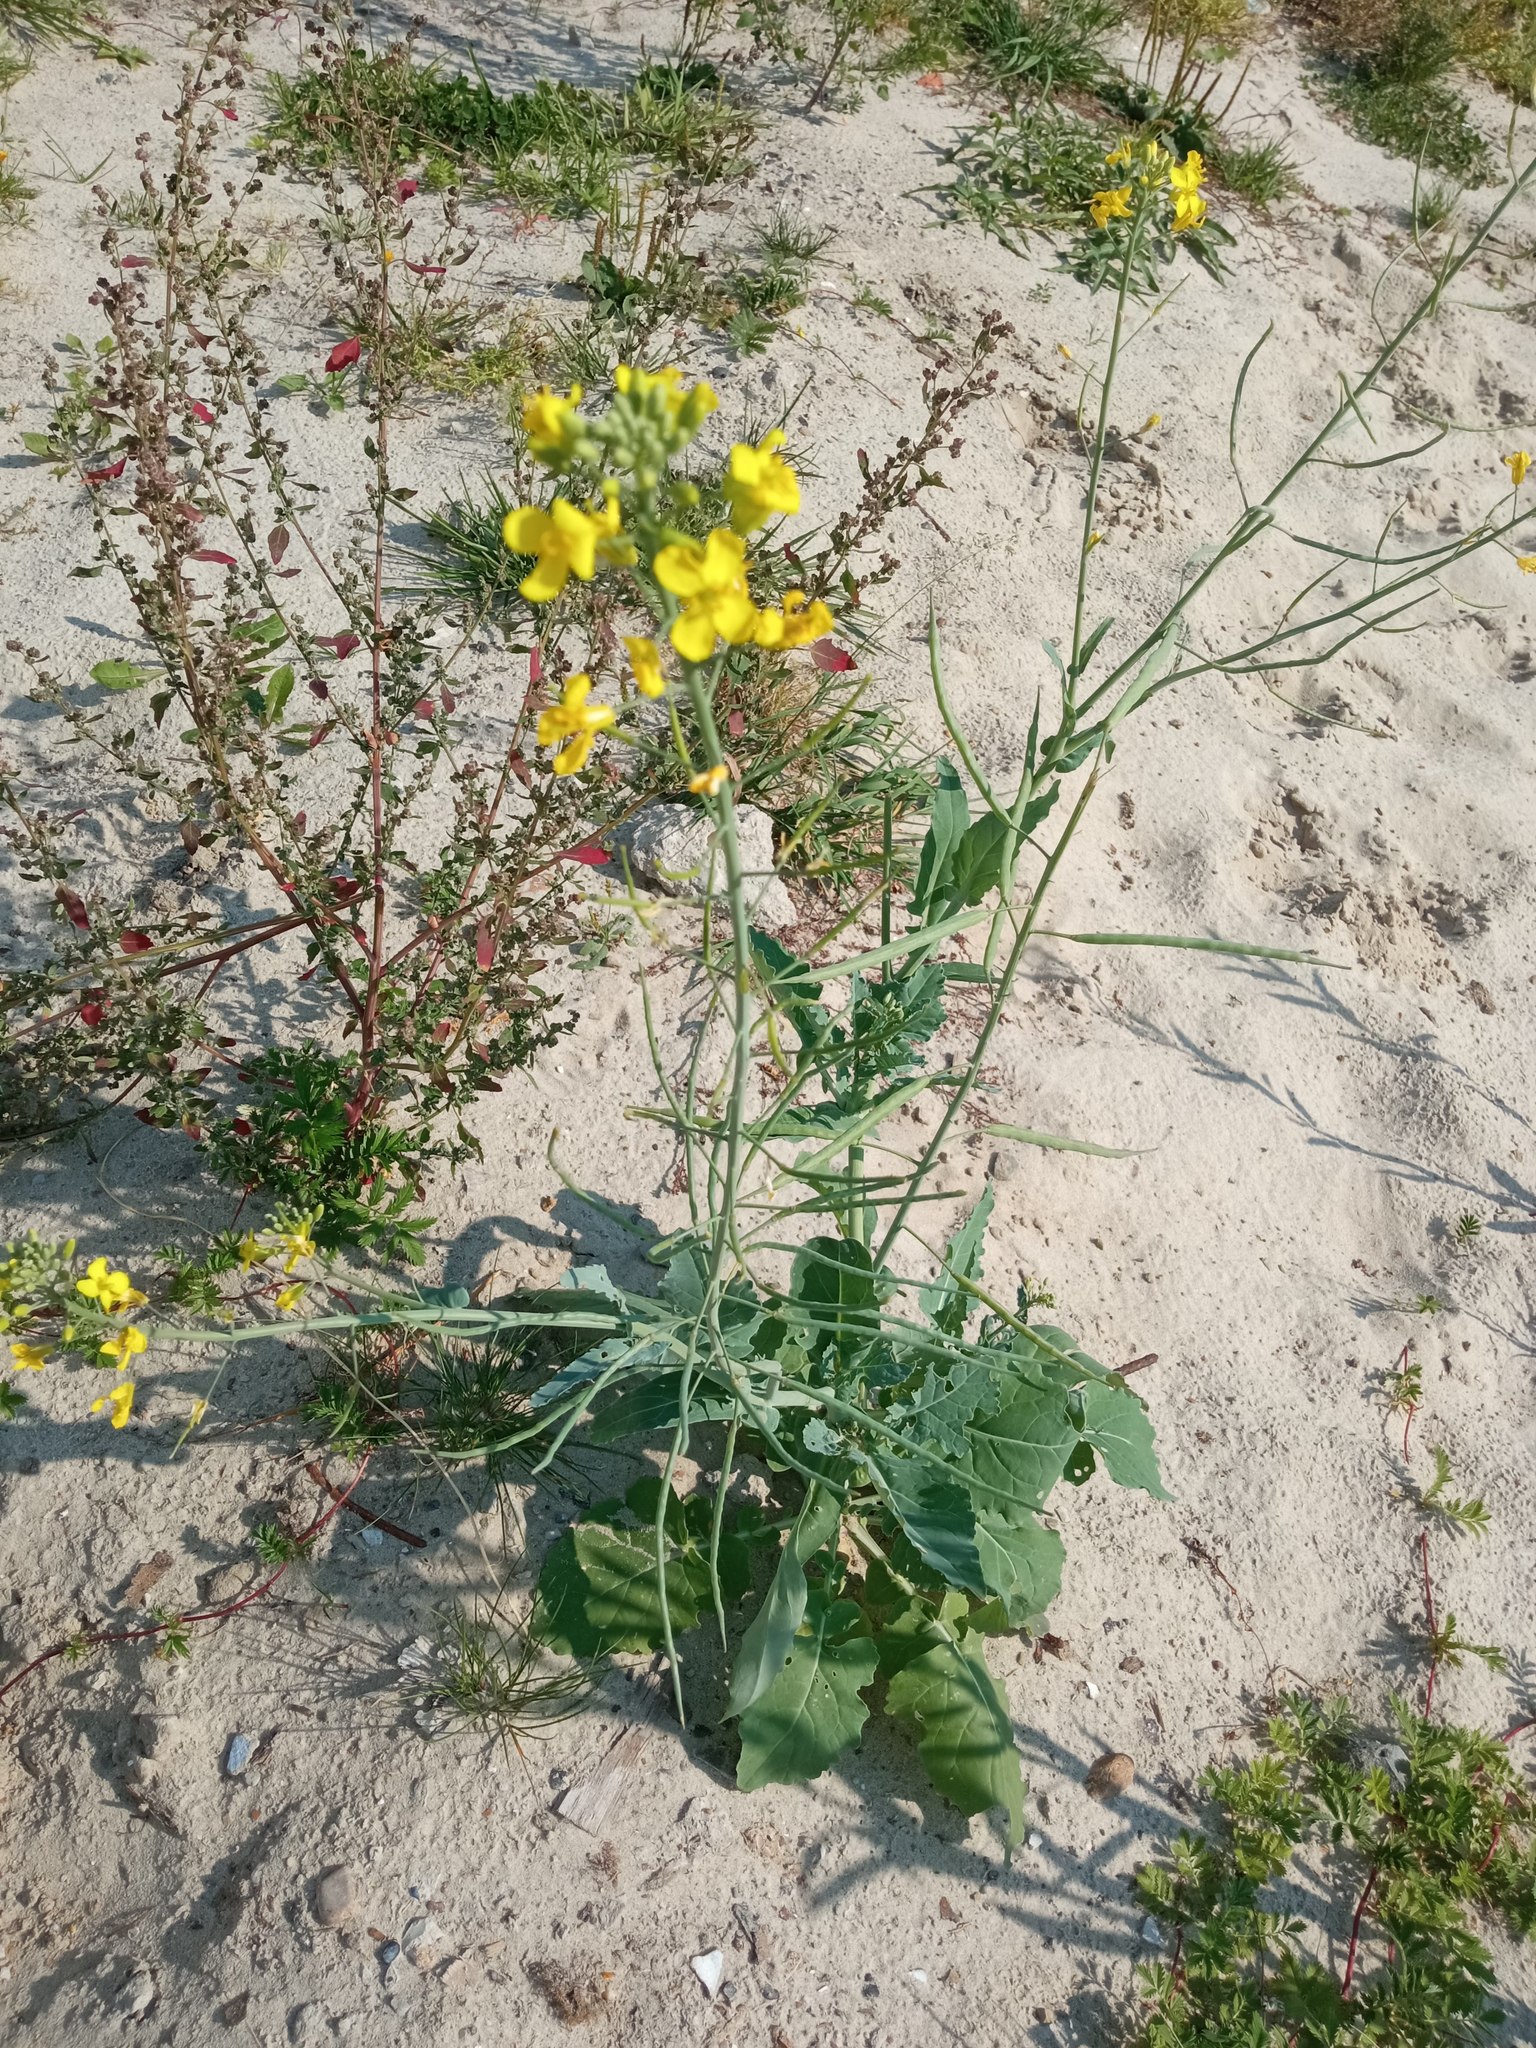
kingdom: Plantae
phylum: Tracheophyta
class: Magnoliopsida
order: Brassicales
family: Brassicaceae
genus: Brassica
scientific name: Brassica napus
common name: Rape
